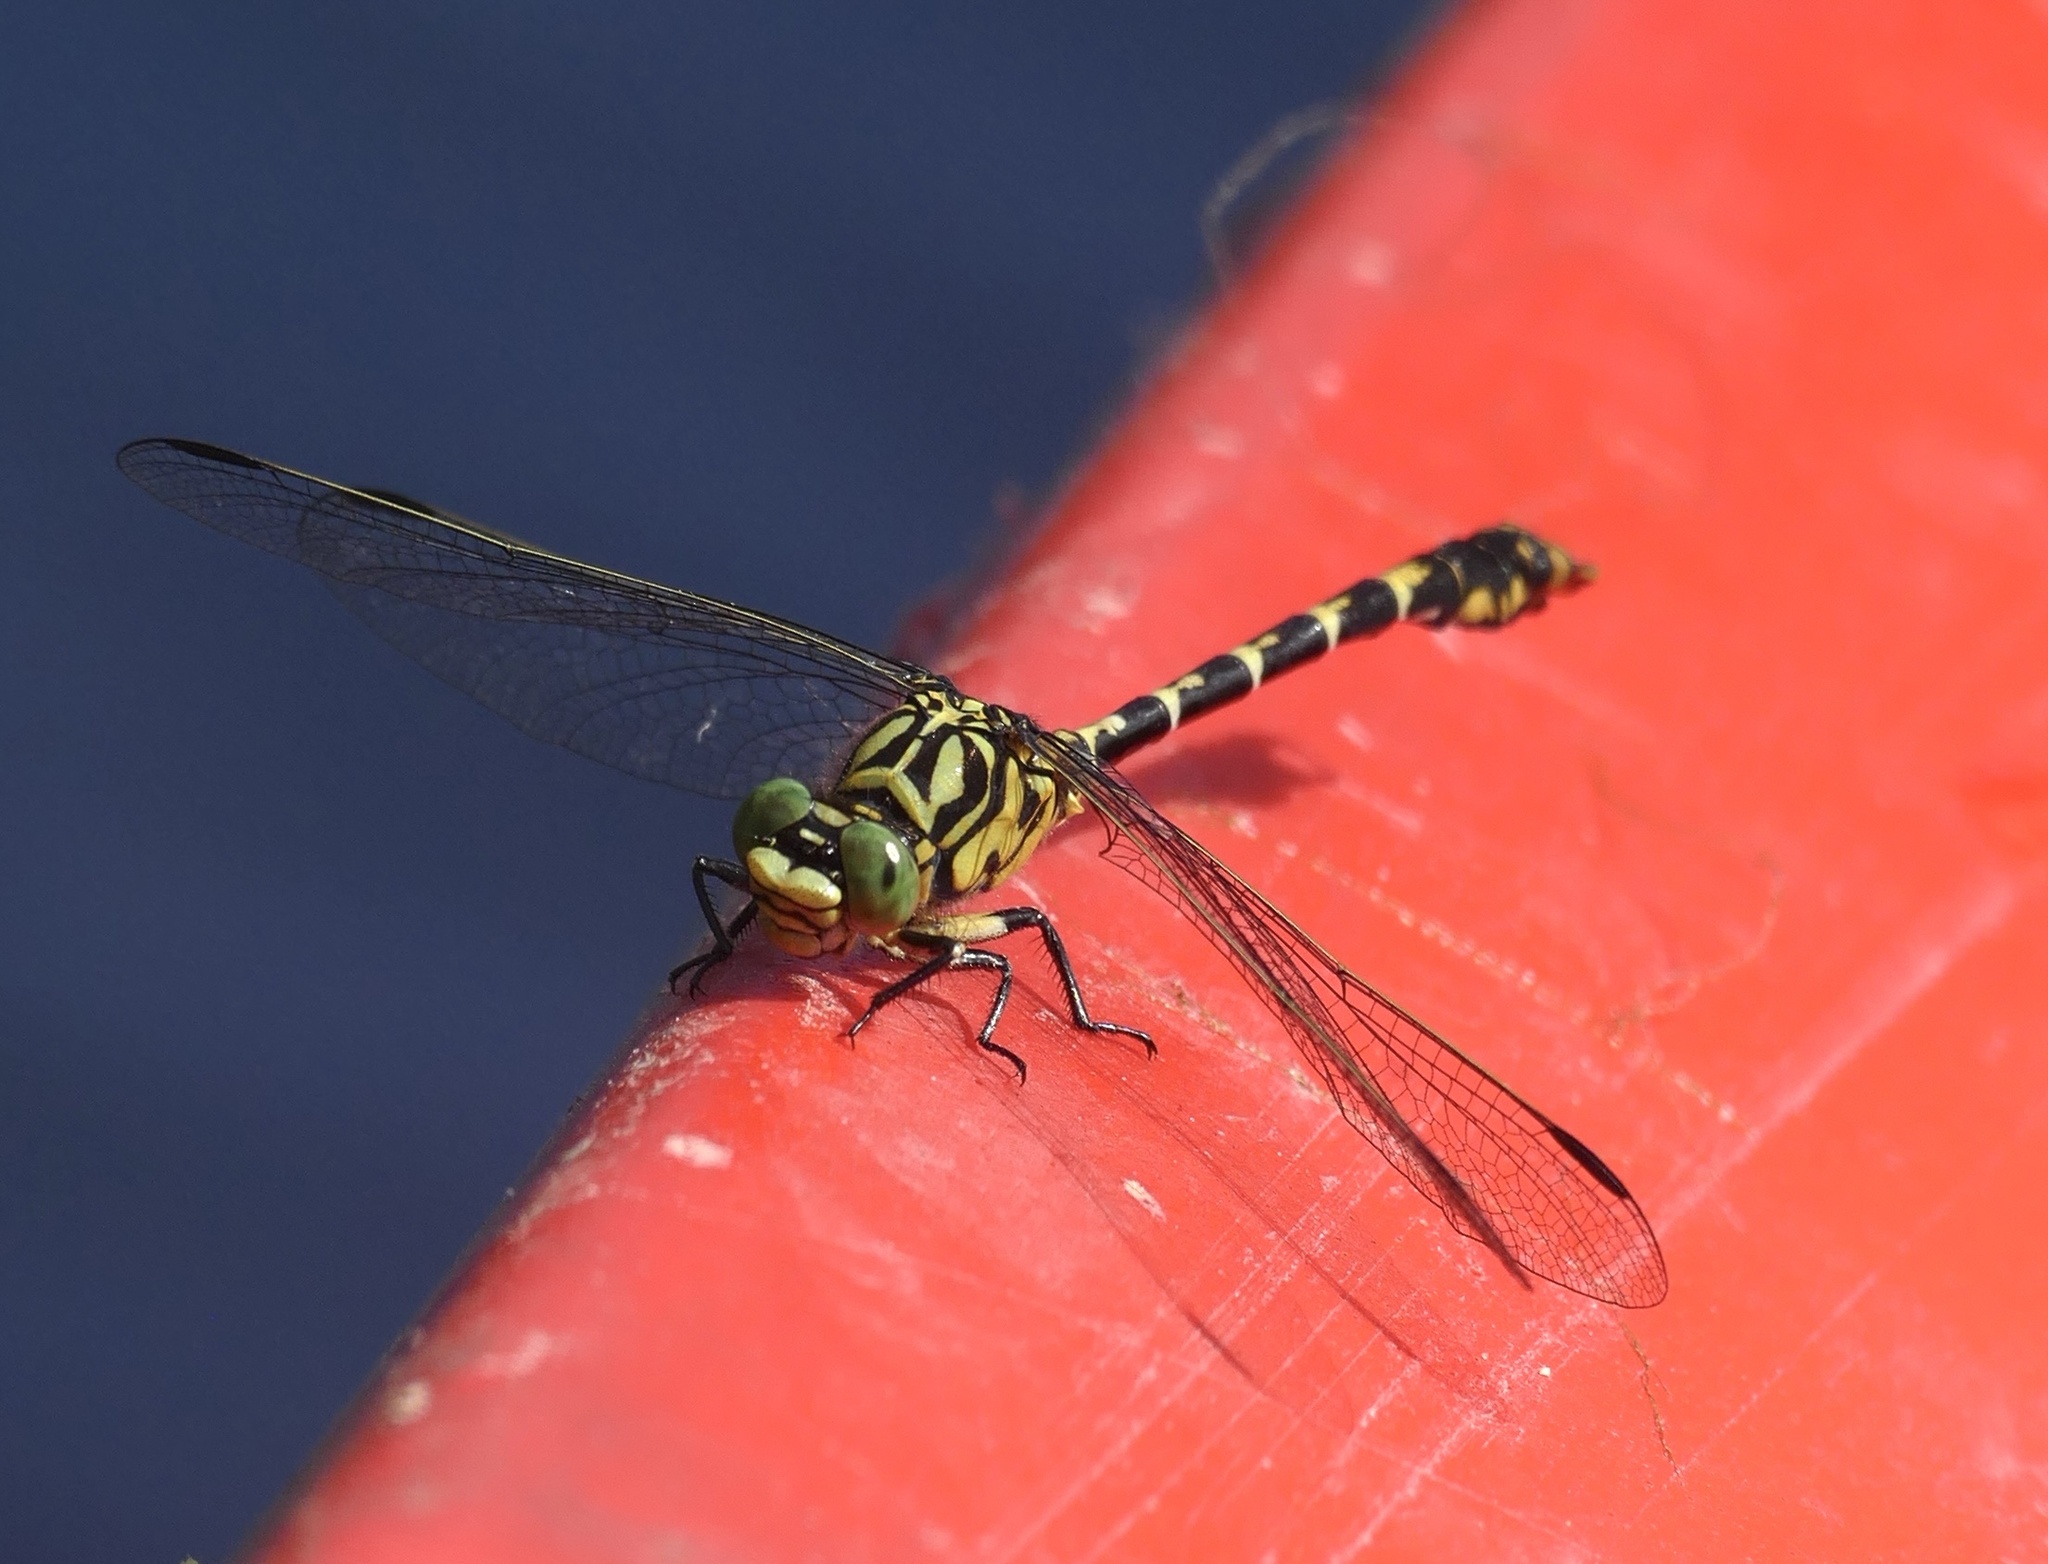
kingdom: Animalia
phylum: Arthropoda
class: Insecta
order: Odonata
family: Gomphidae
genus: Onychogomphus
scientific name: Onychogomphus forcipatus
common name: Small pincertail
